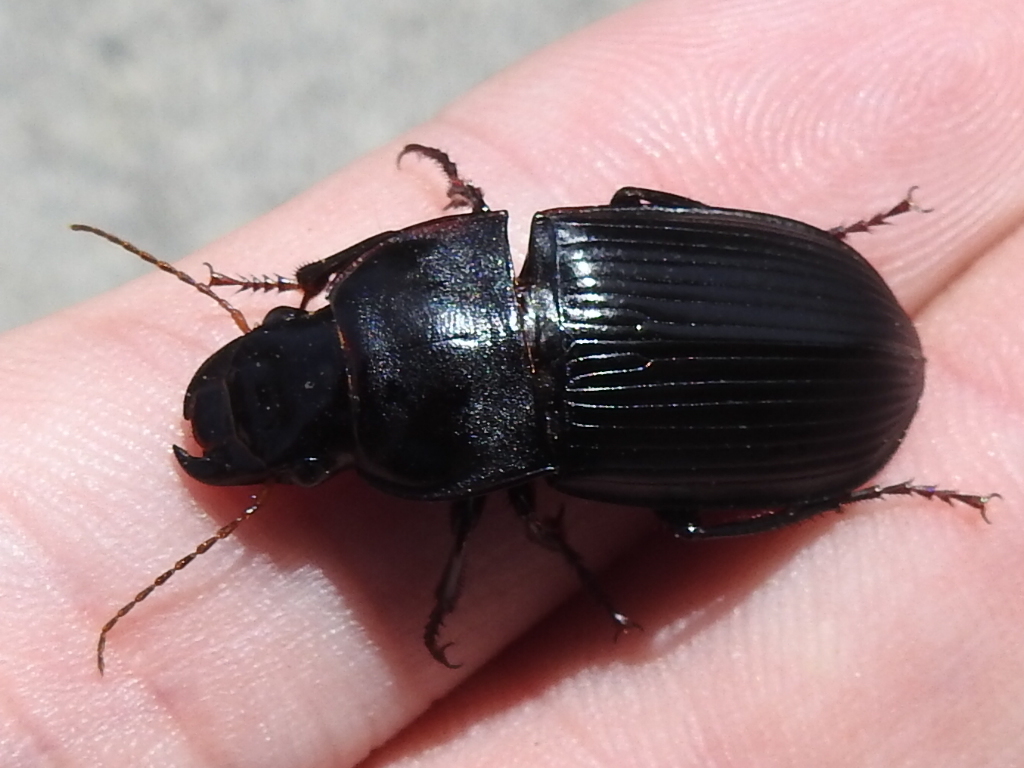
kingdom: Animalia
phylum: Arthropoda
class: Insecta
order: Coleoptera
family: Carabidae
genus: Harpalus
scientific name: Harpalus
